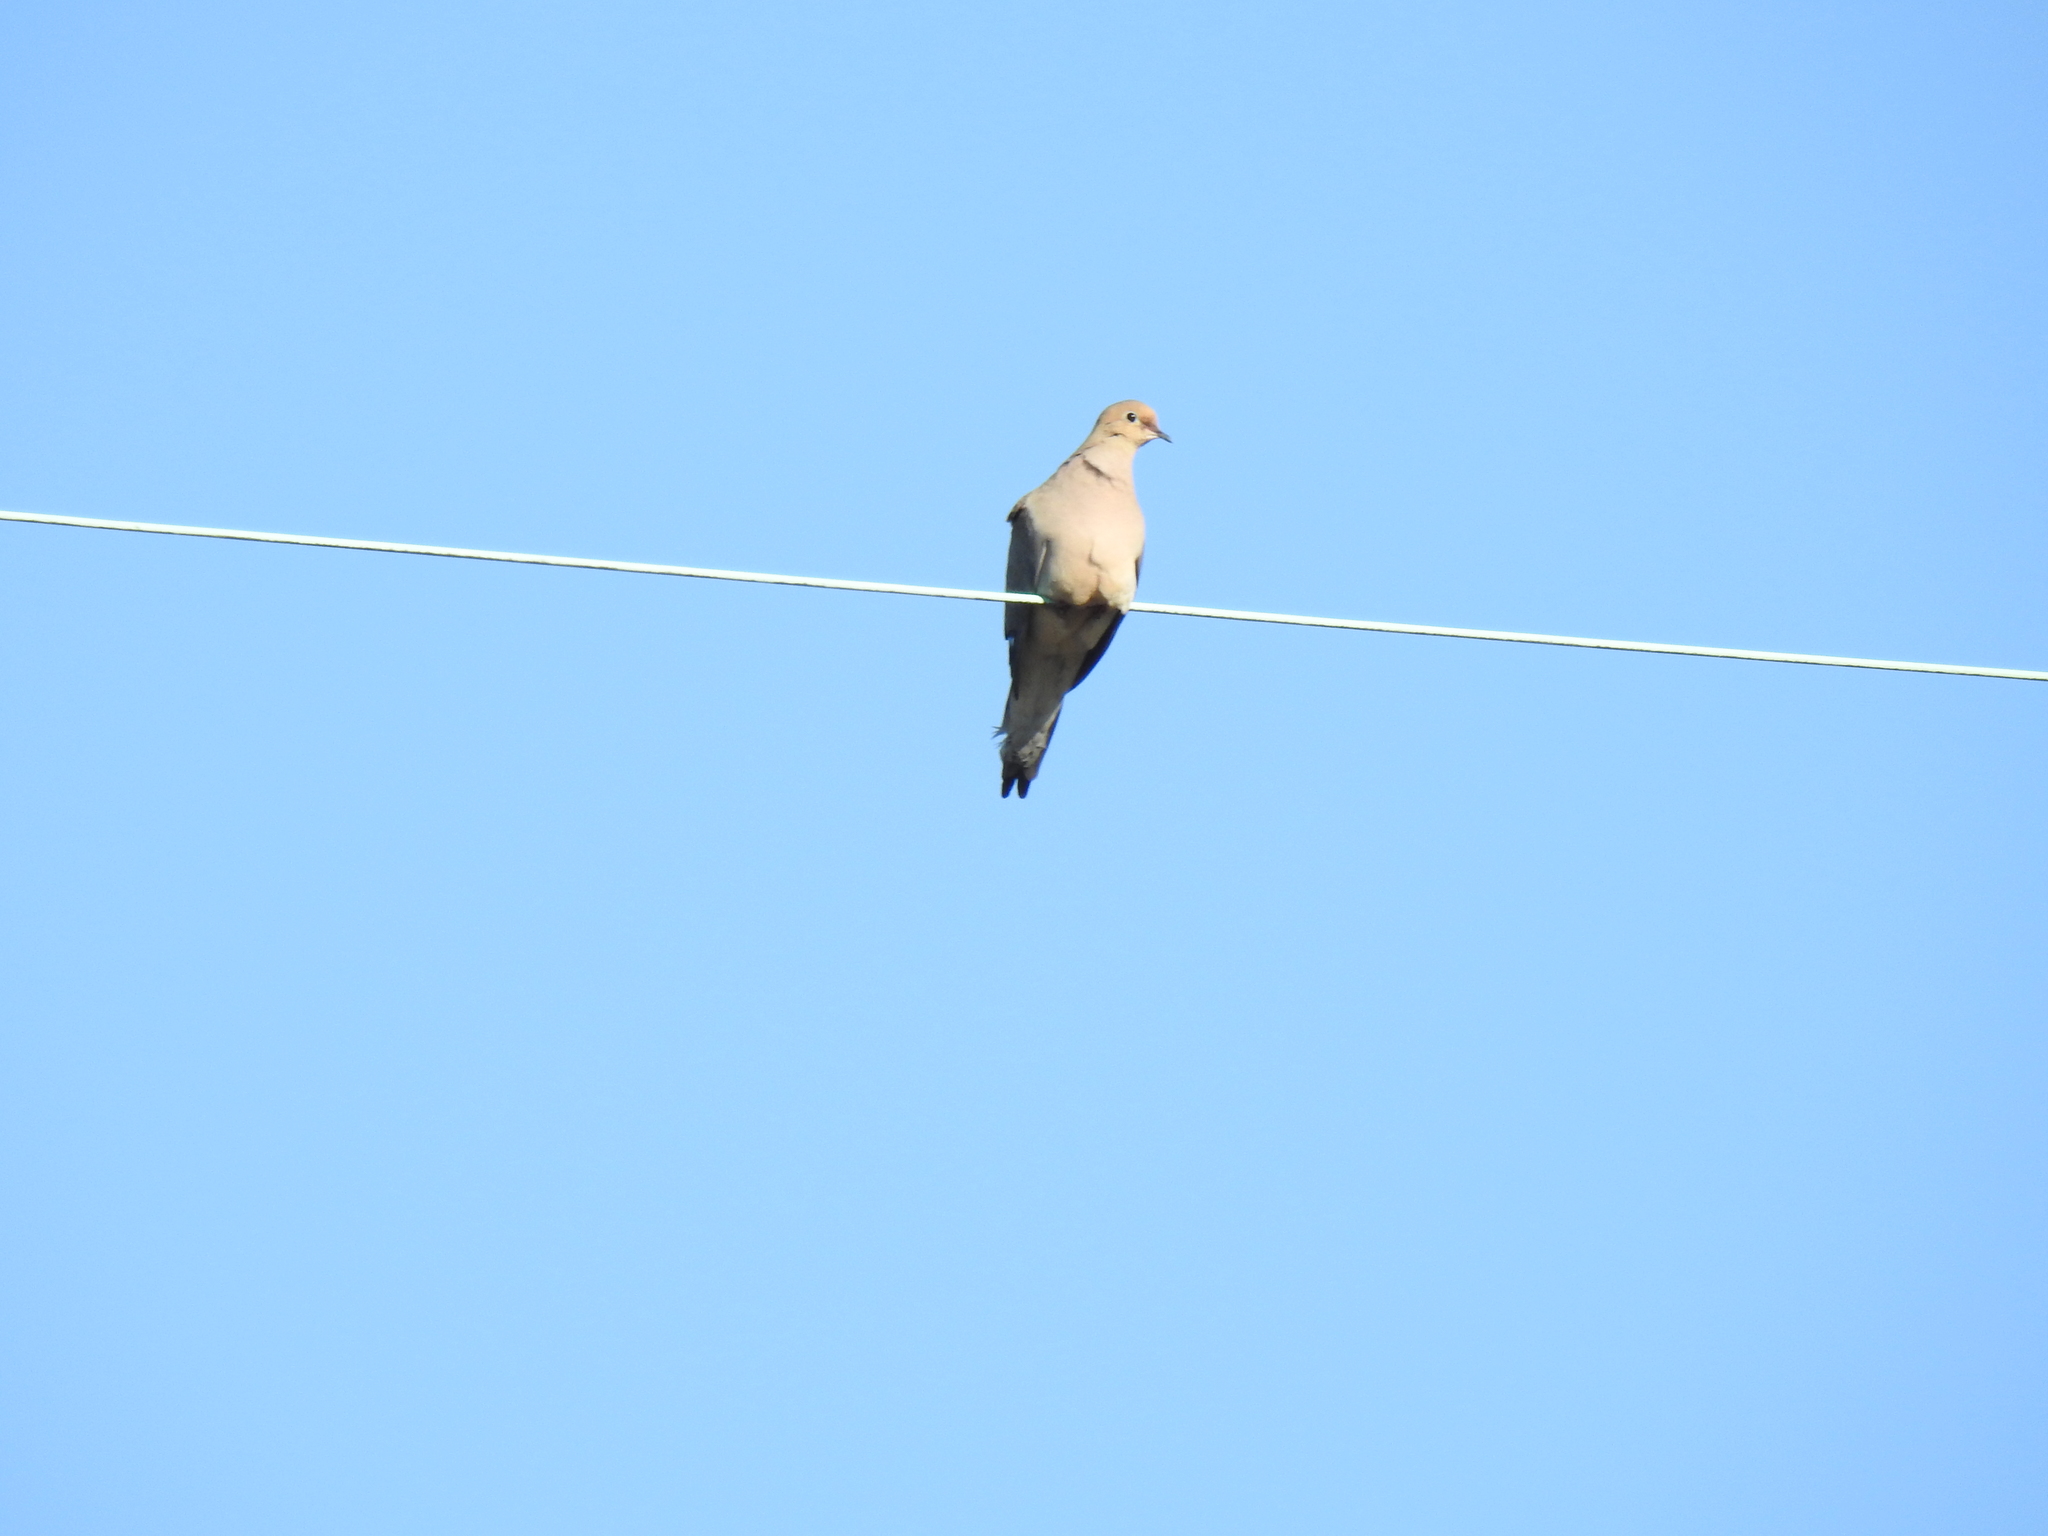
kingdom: Animalia
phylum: Chordata
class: Aves
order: Columbiformes
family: Columbidae
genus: Zenaida
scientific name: Zenaida macroura
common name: Mourning dove
